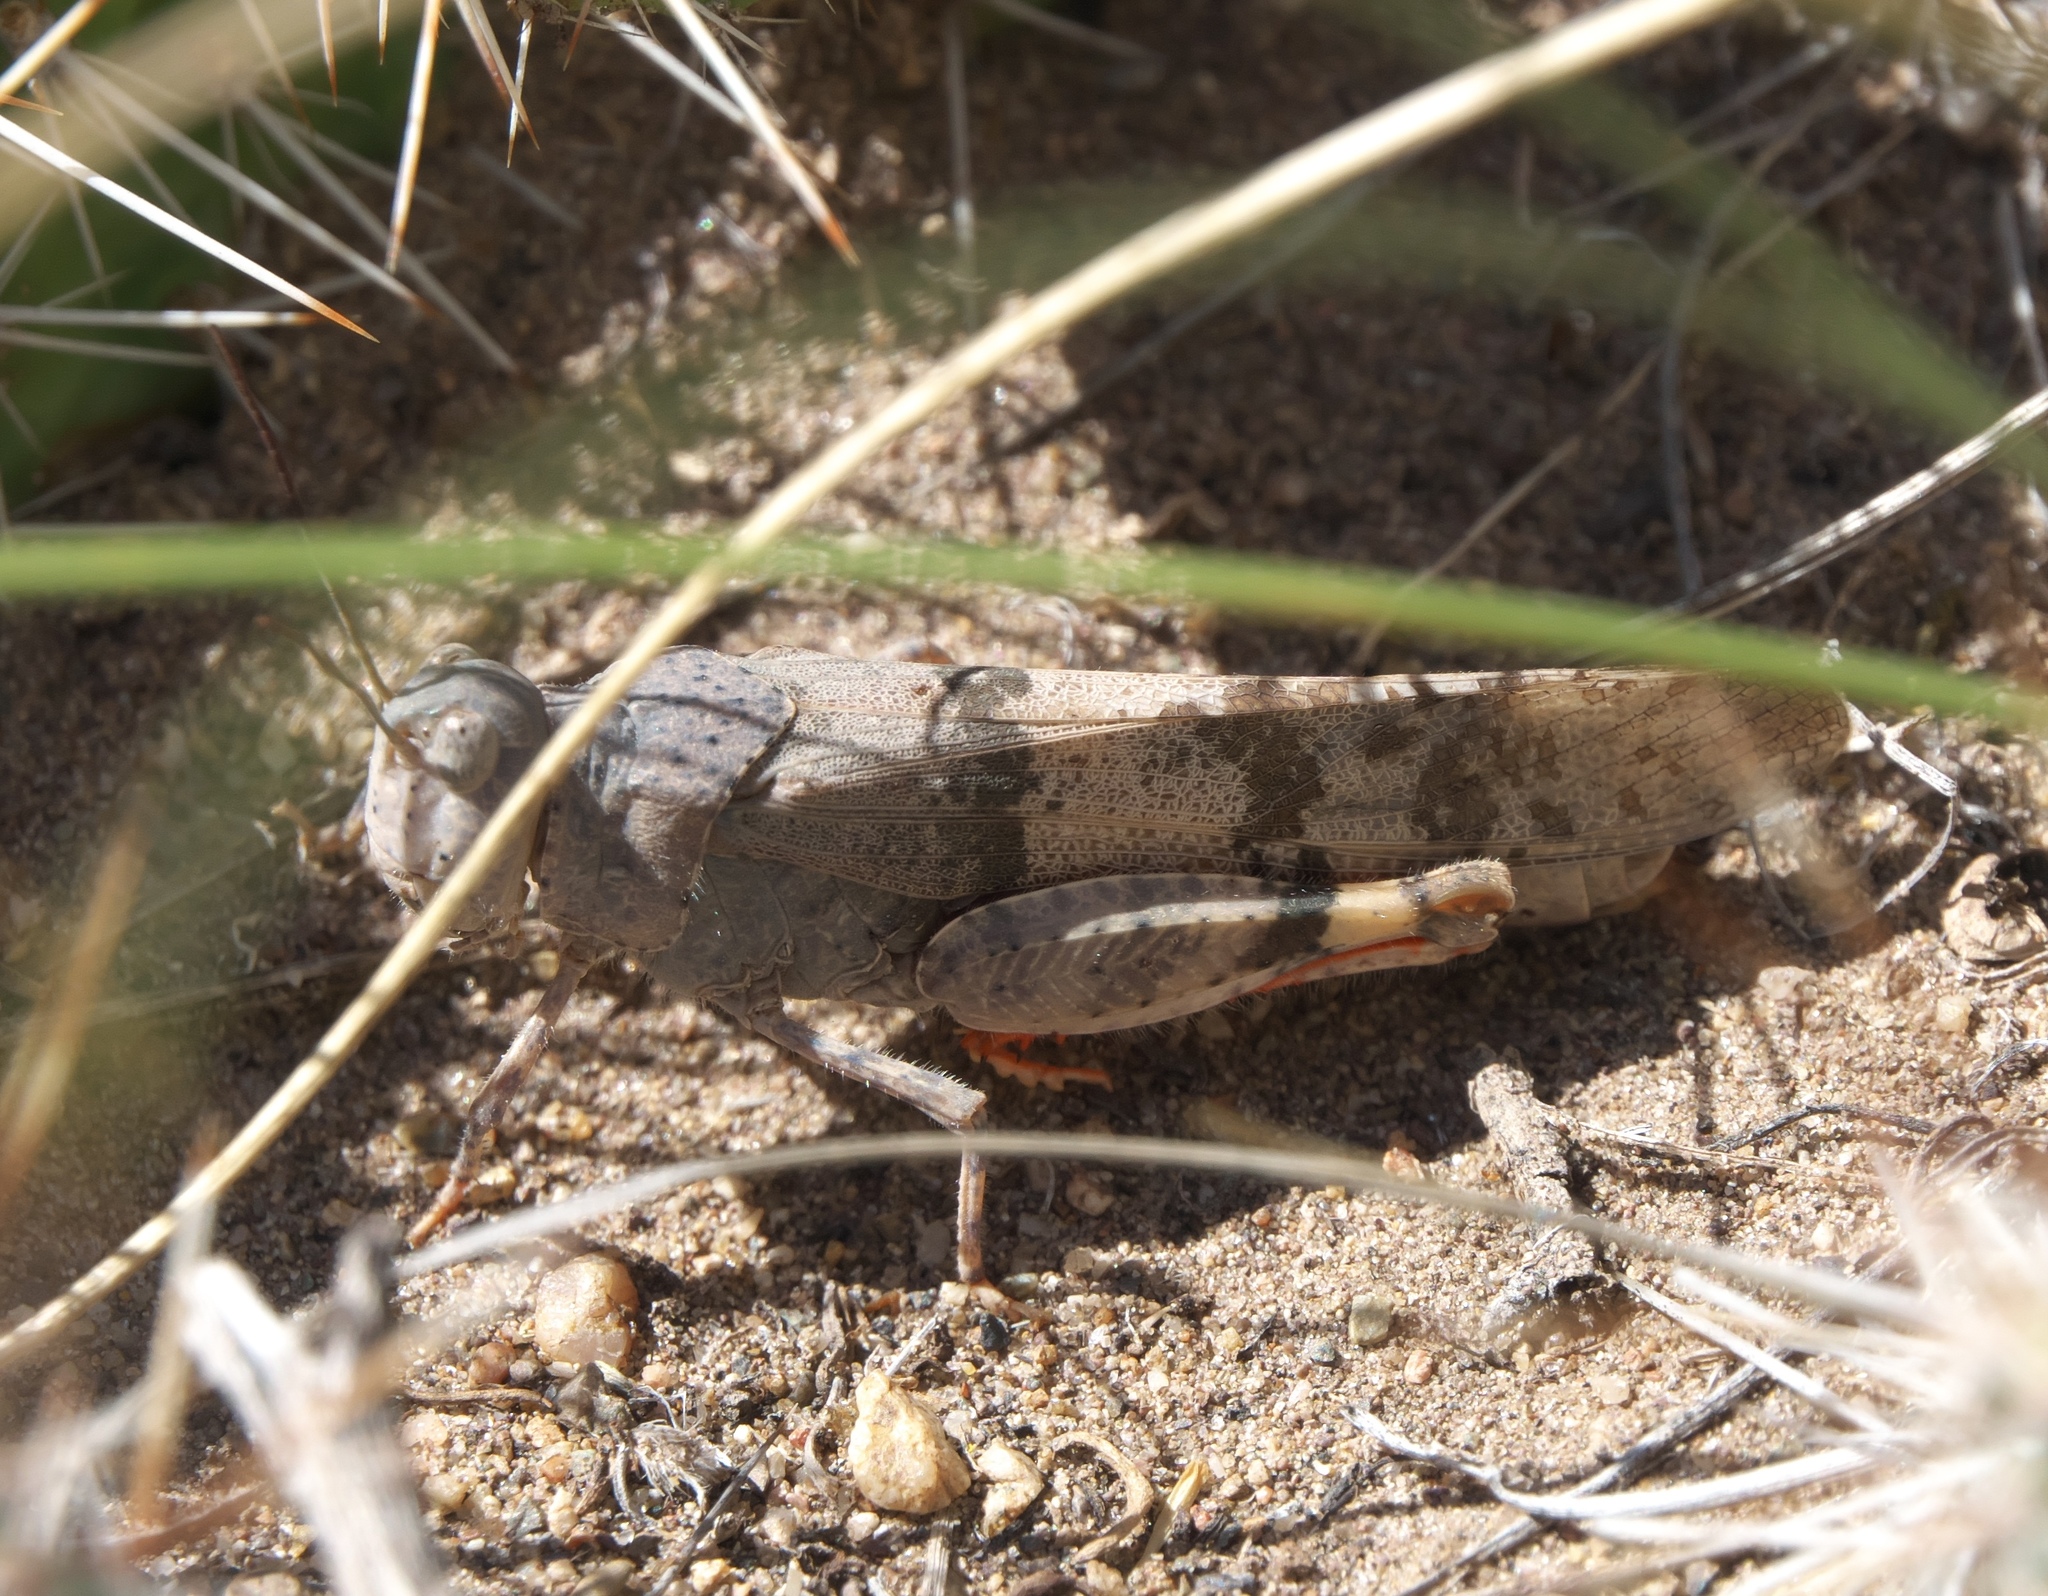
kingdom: Animalia
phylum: Arthropoda
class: Insecta
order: Orthoptera
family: Acrididae
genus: Trimerotropis
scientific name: Trimerotropis latifasciata
